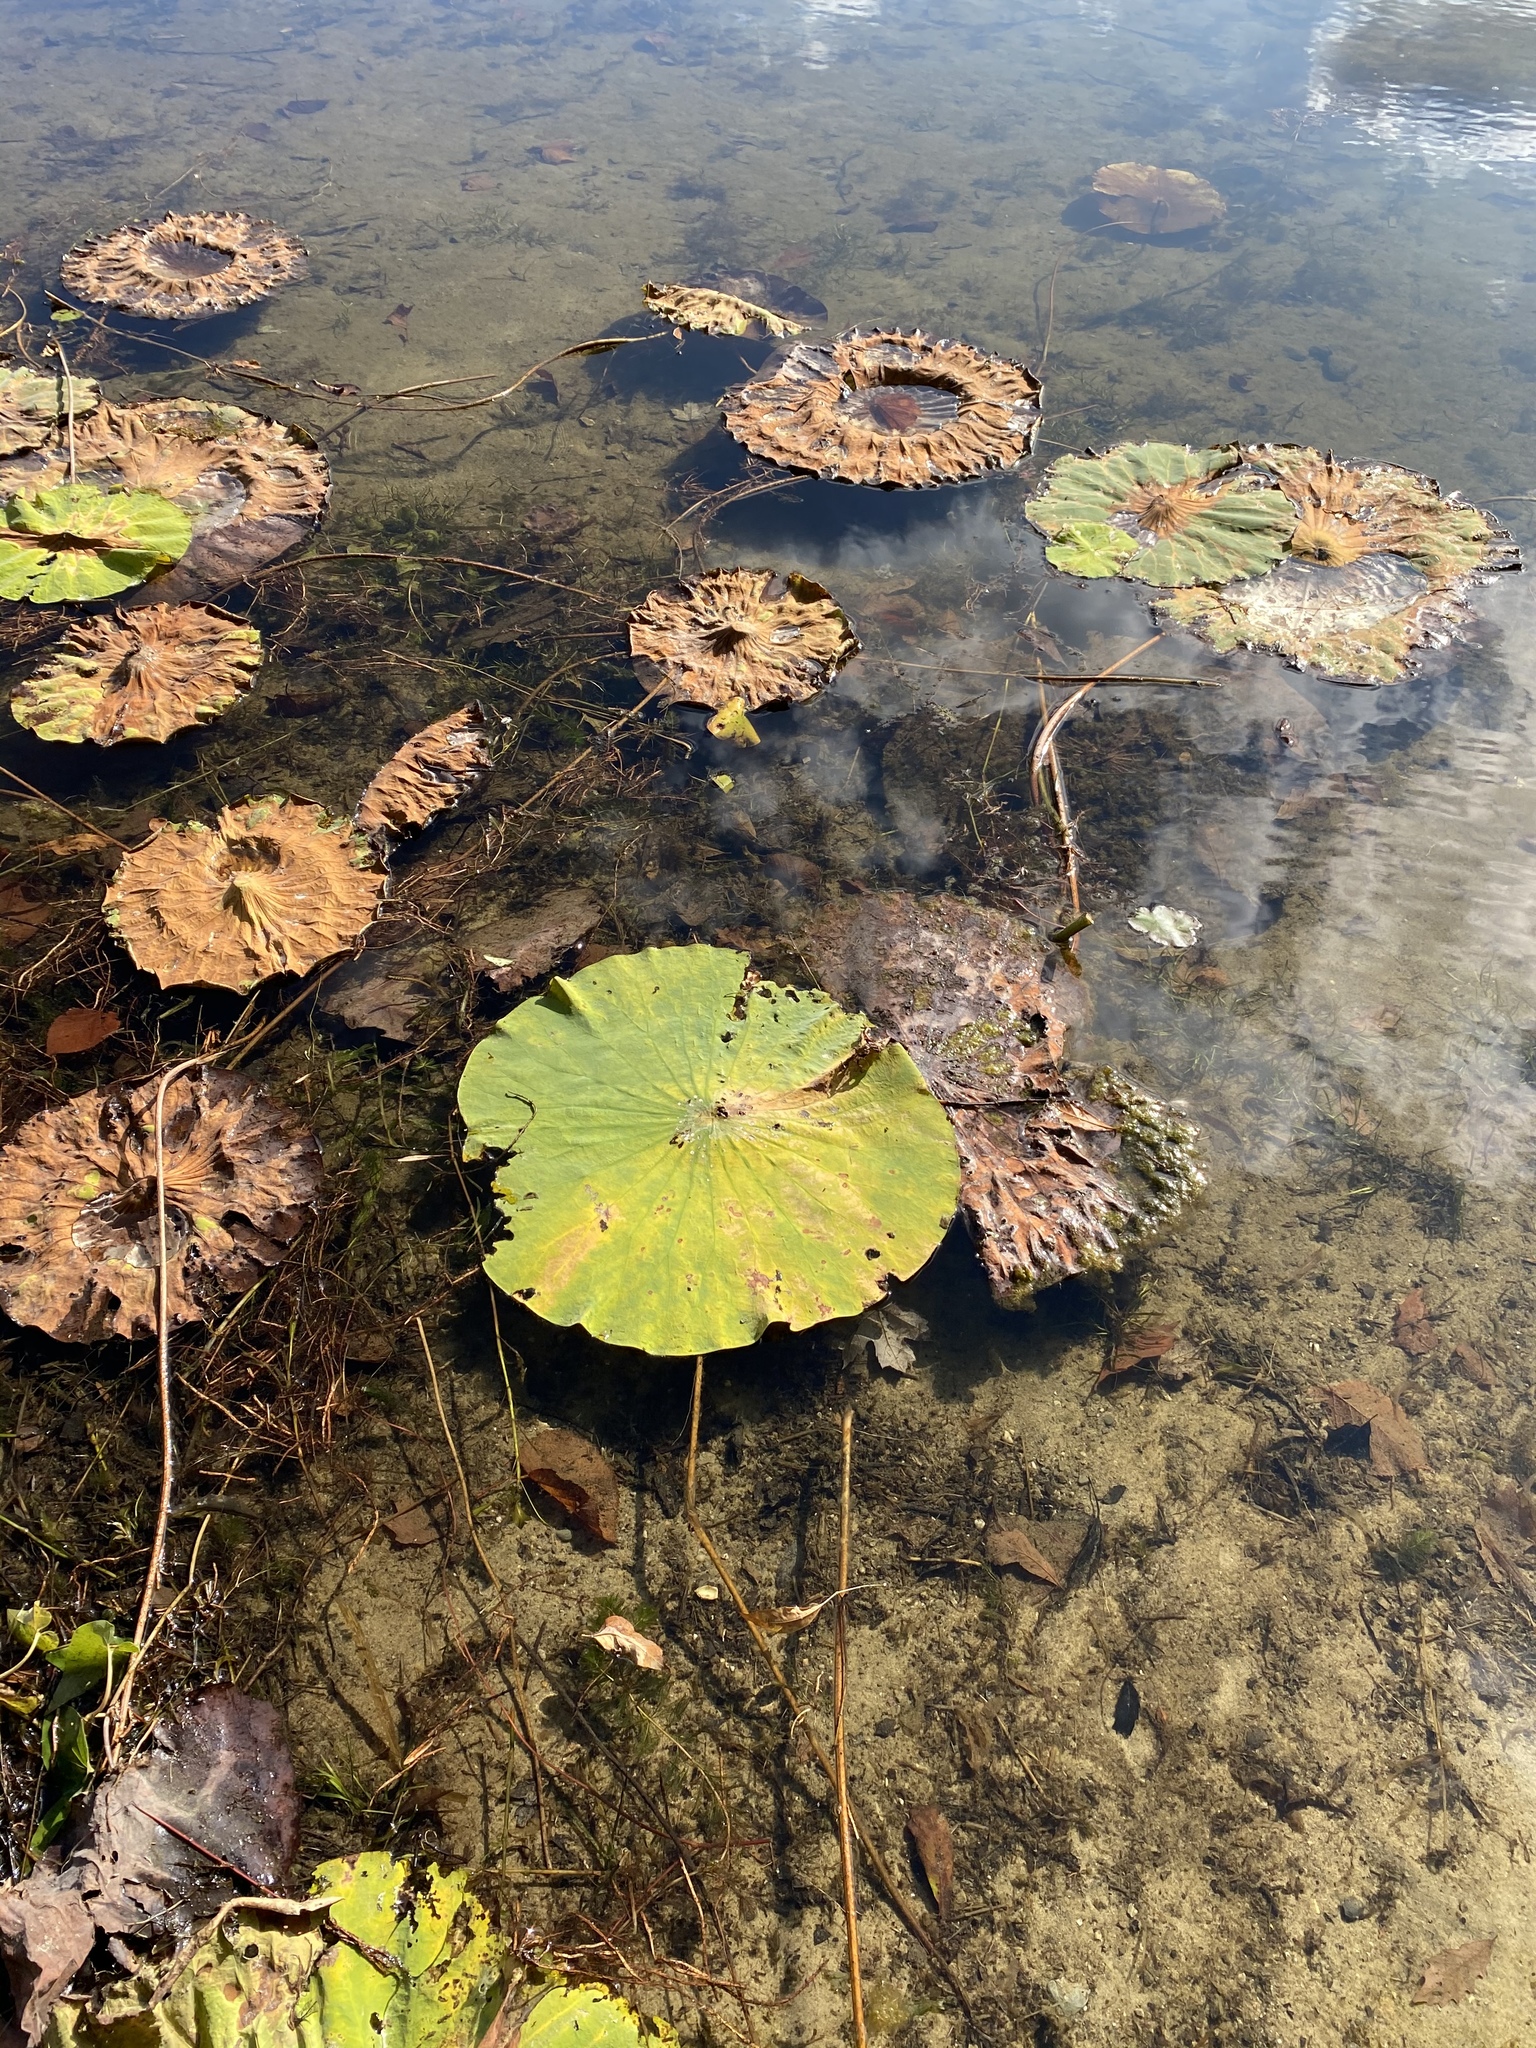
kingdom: Plantae
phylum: Tracheophyta
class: Magnoliopsida
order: Proteales
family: Nelumbonaceae
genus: Nelumbo
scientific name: Nelumbo lutea
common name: American lotus
